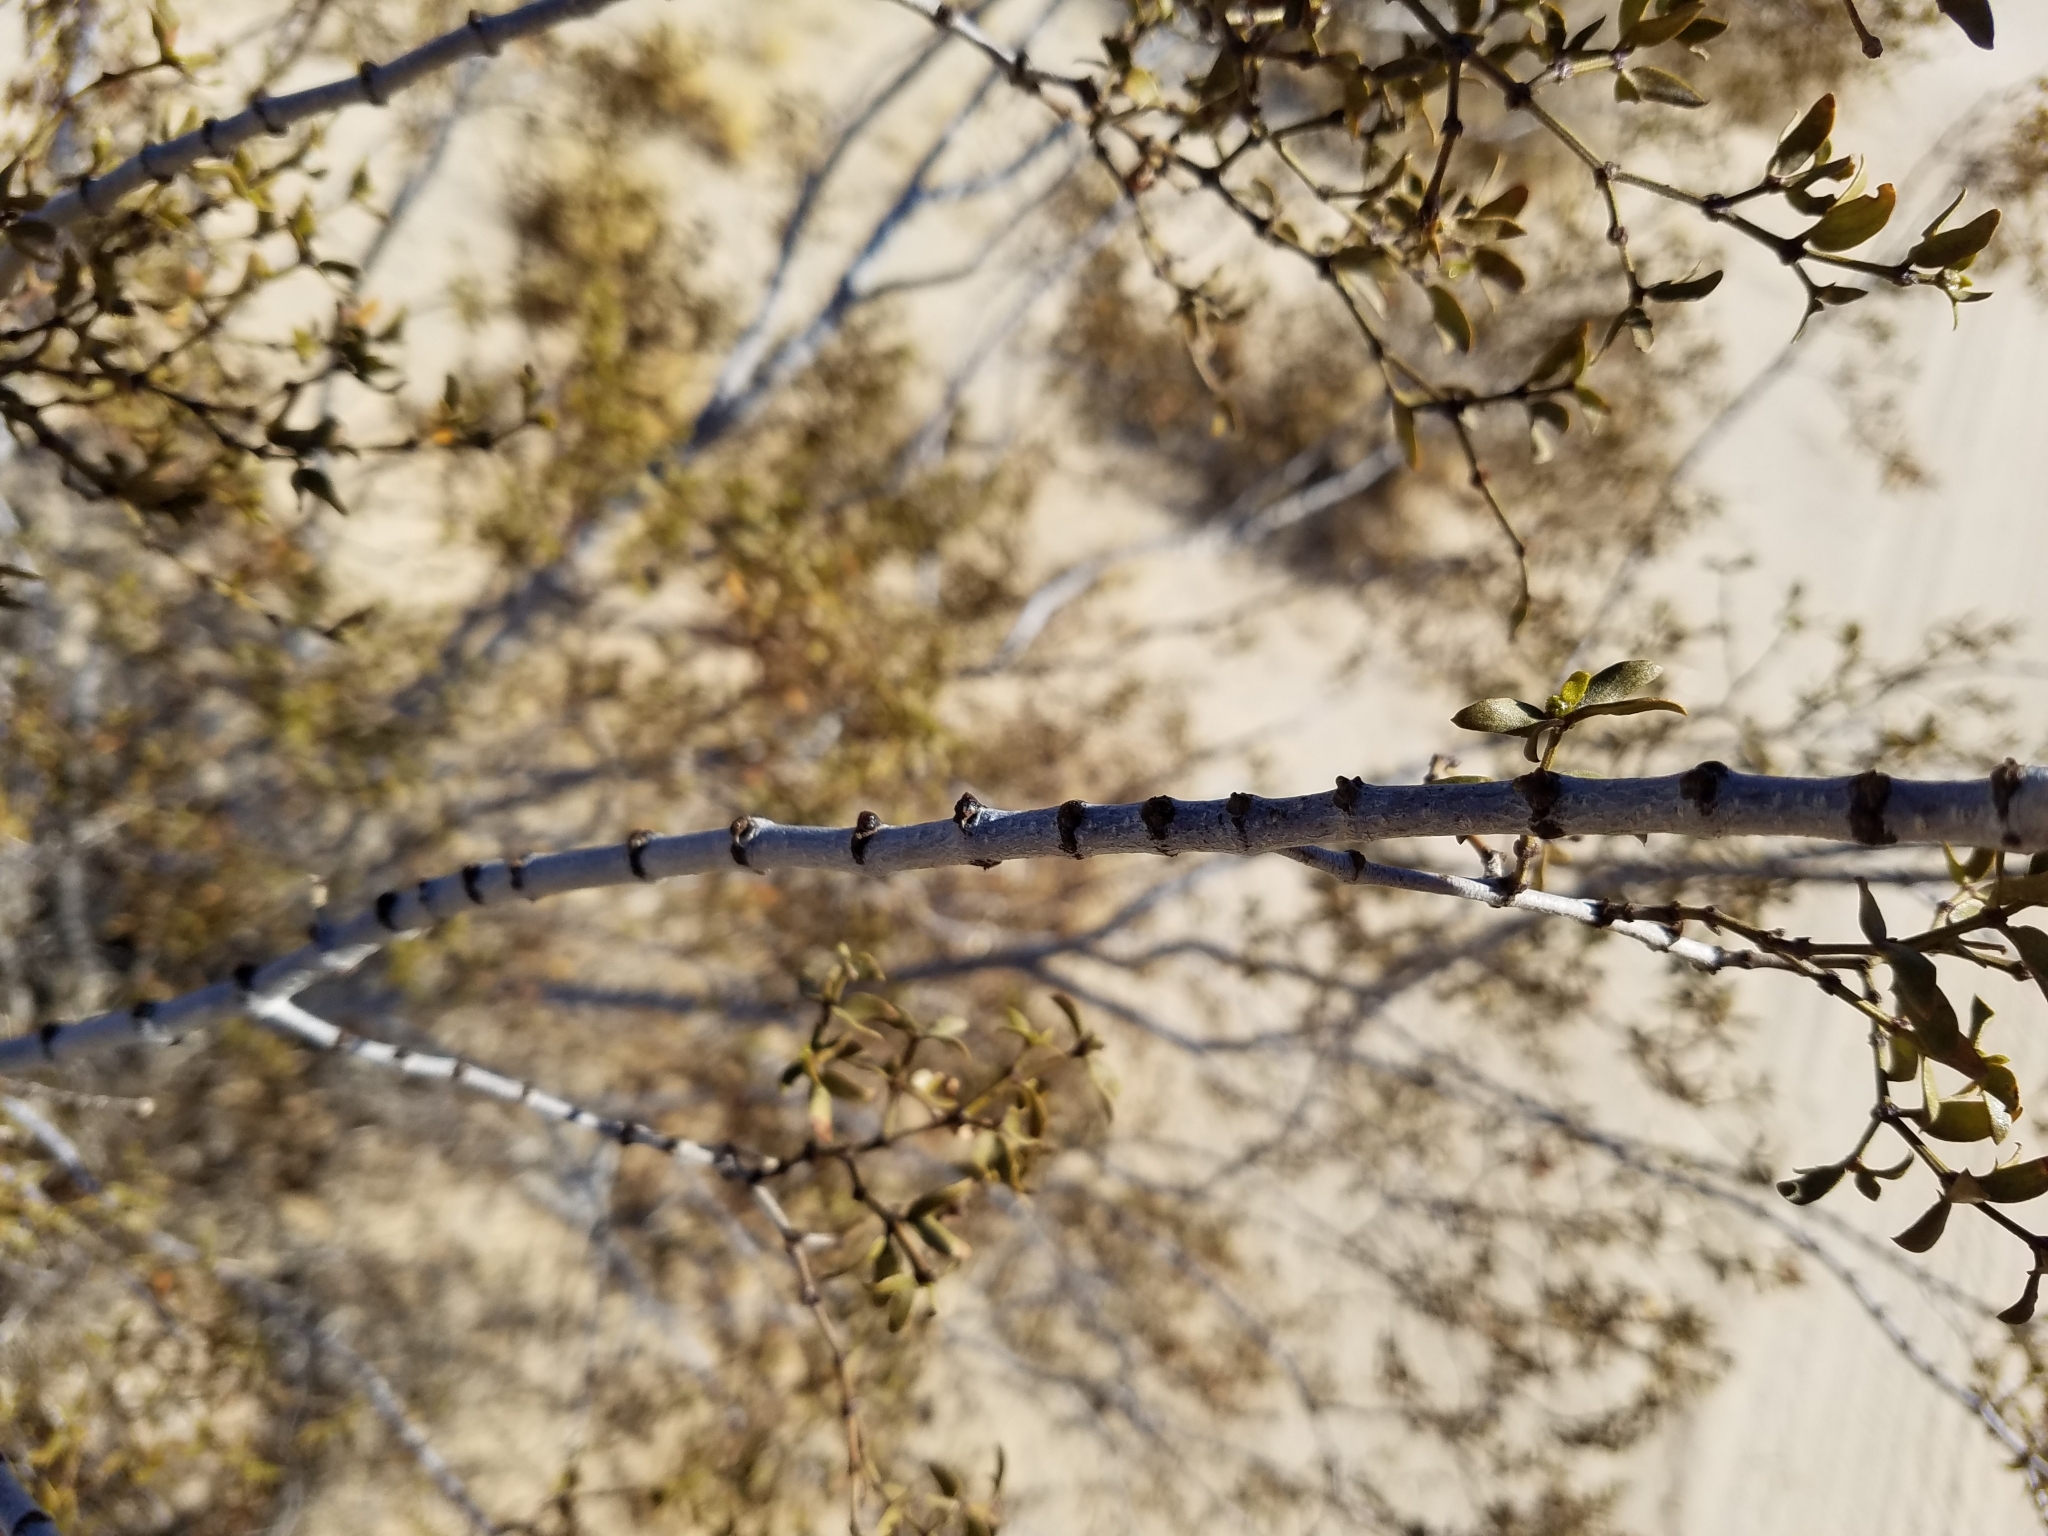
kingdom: Plantae
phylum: Tracheophyta
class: Magnoliopsida
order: Zygophyllales
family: Zygophyllaceae
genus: Larrea
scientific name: Larrea tridentata
